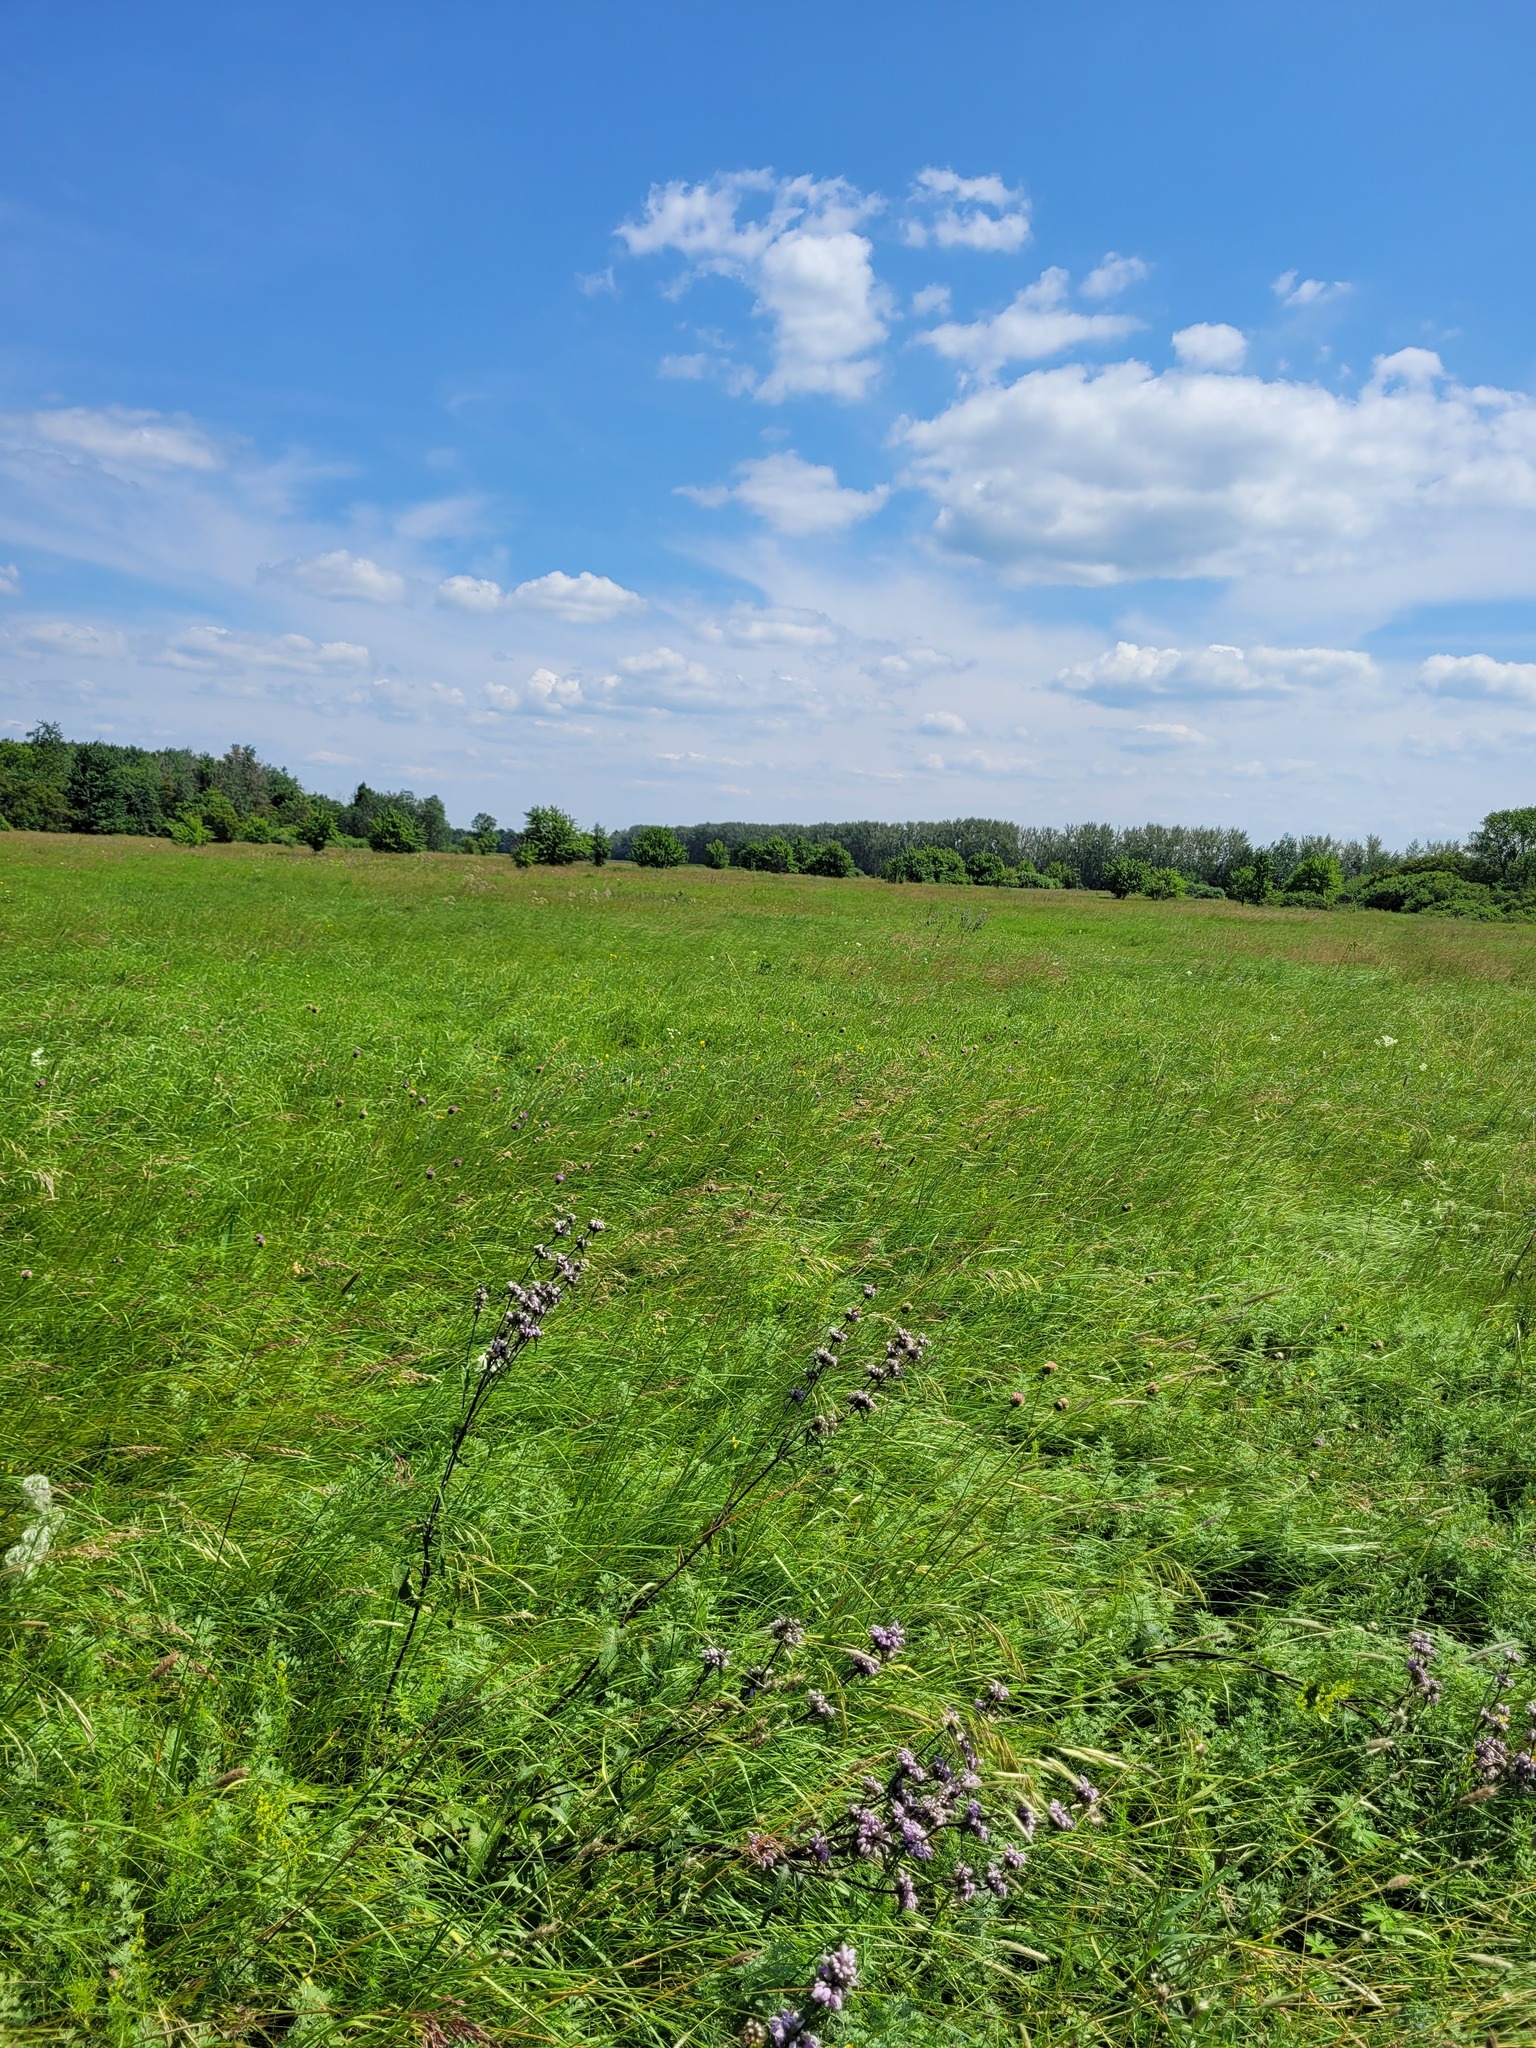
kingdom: Plantae
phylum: Tracheophyta
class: Magnoliopsida
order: Lamiales
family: Lamiaceae
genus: Phlomoides
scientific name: Phlomoides tuberosa
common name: Tuberous jerusalem sage
